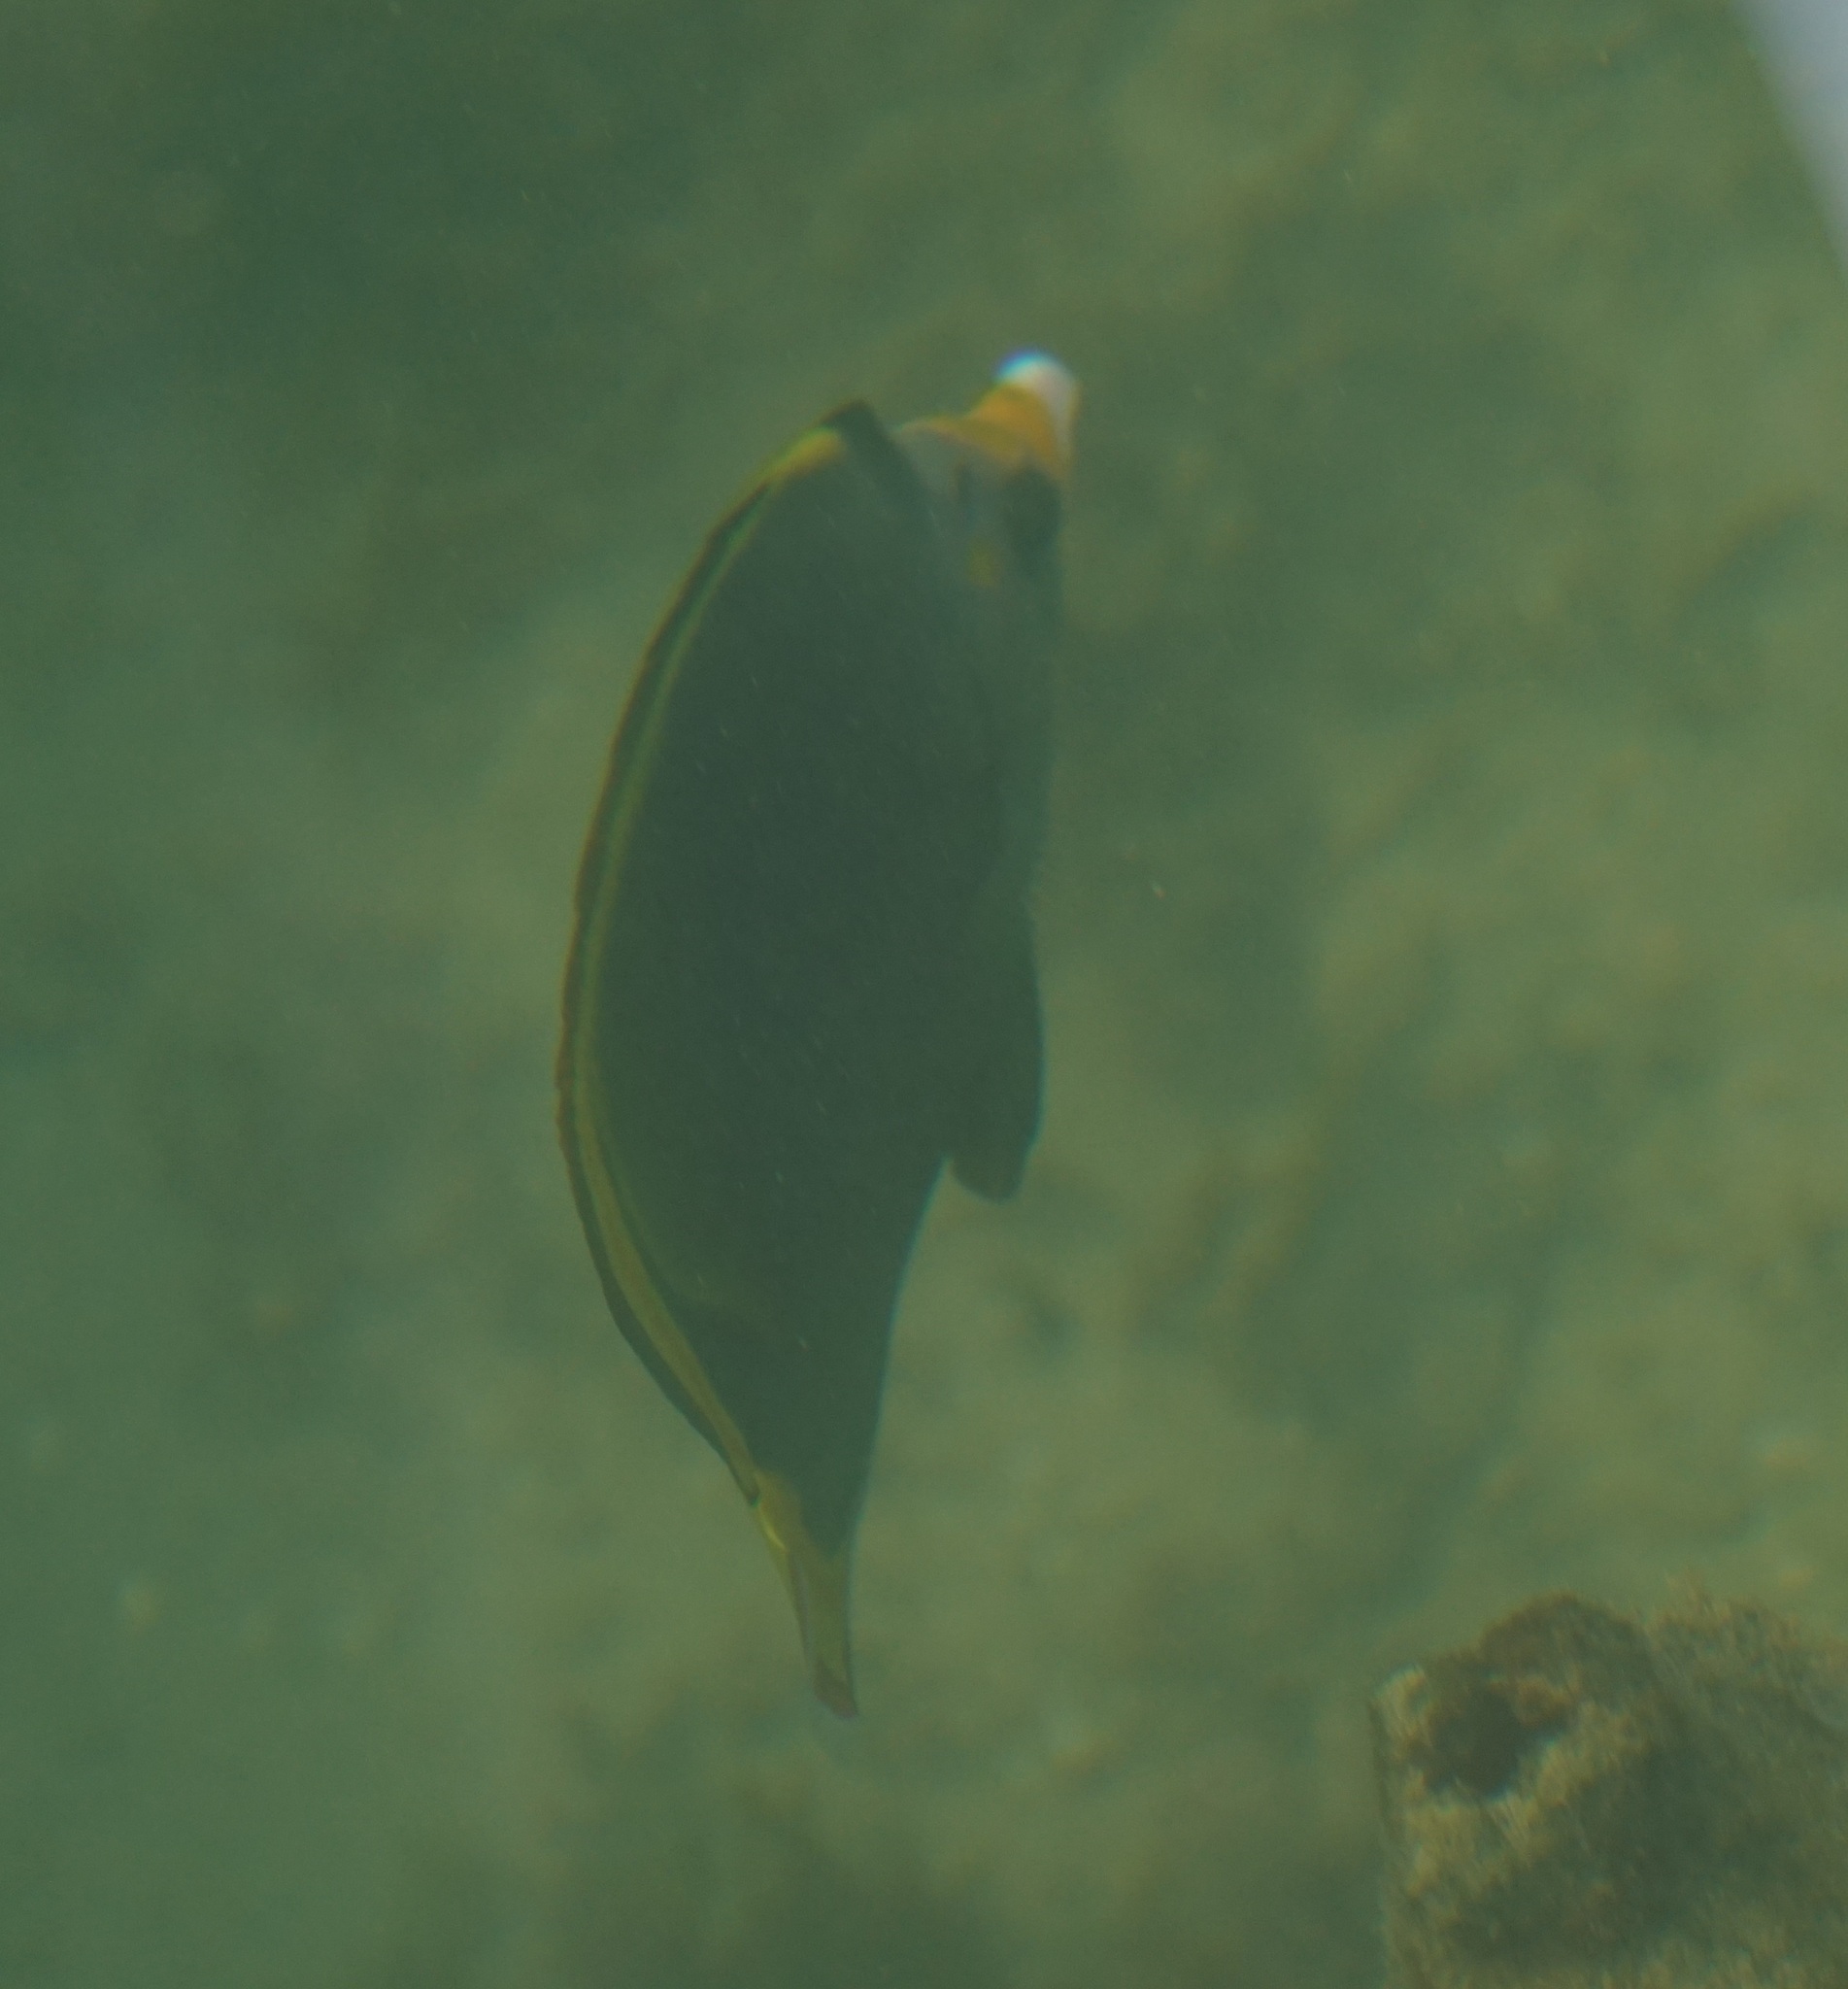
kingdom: Animalia
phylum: Chordata
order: Perciformes
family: Chaetodontidae
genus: Chaetodon
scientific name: Chaetodon flavirostris
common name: Black butterflyfish
